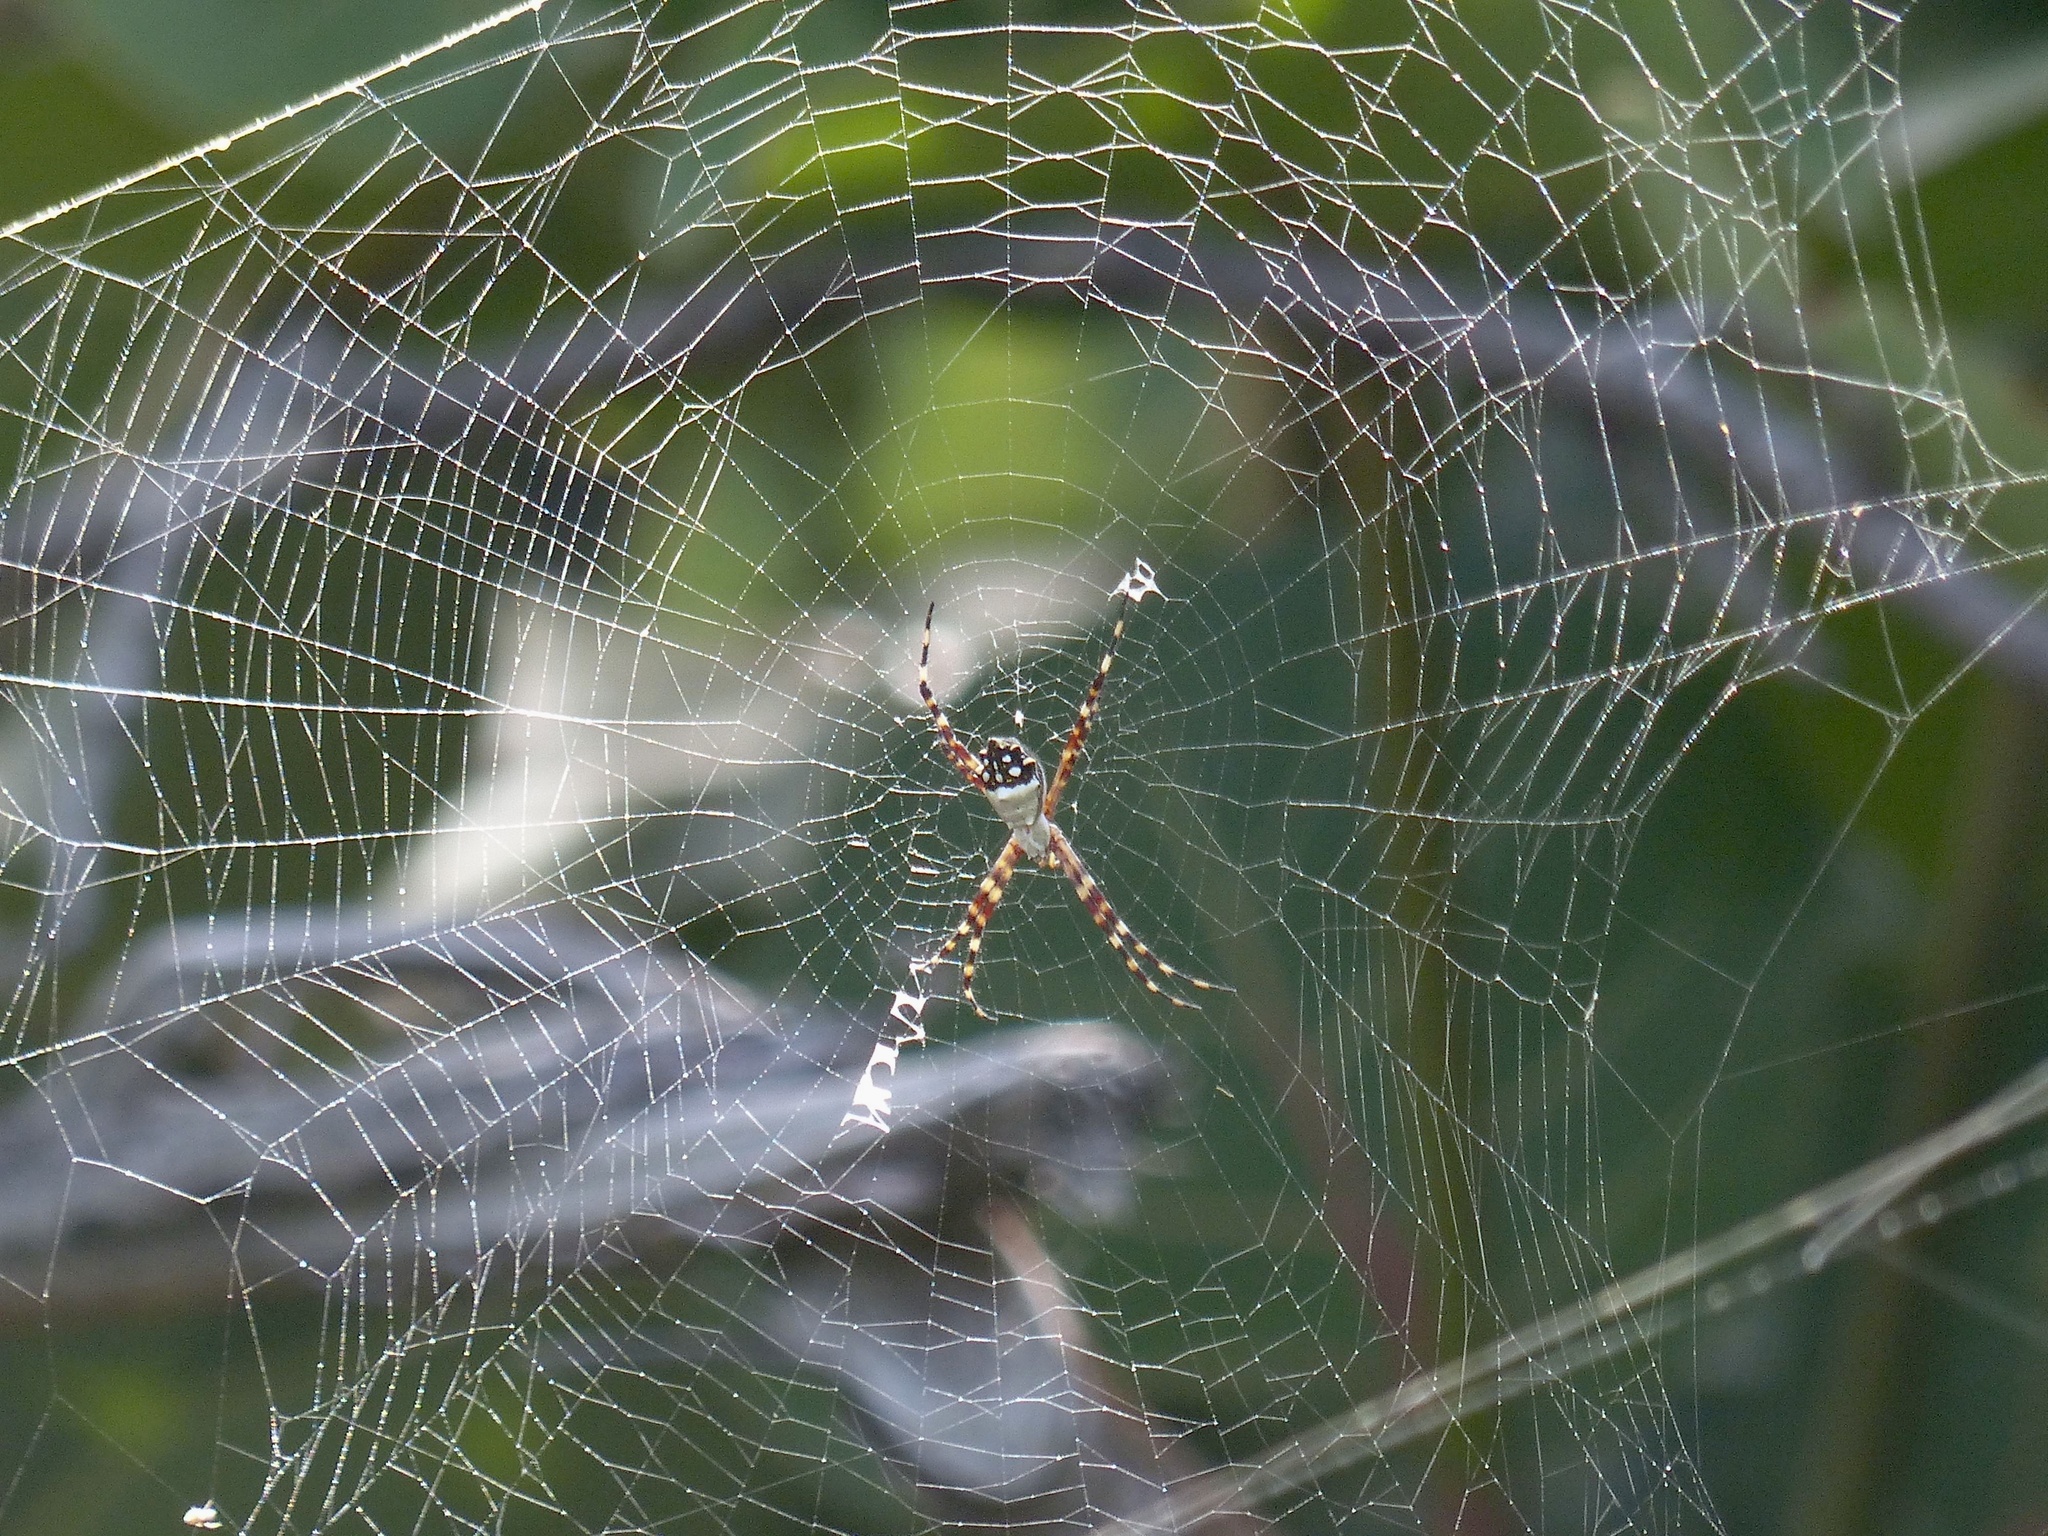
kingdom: Animalia
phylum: Arthropoda
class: Arachnida
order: Araneae
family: Araneidae
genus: Argiope
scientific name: Argiope argentata
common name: Orb weavers
